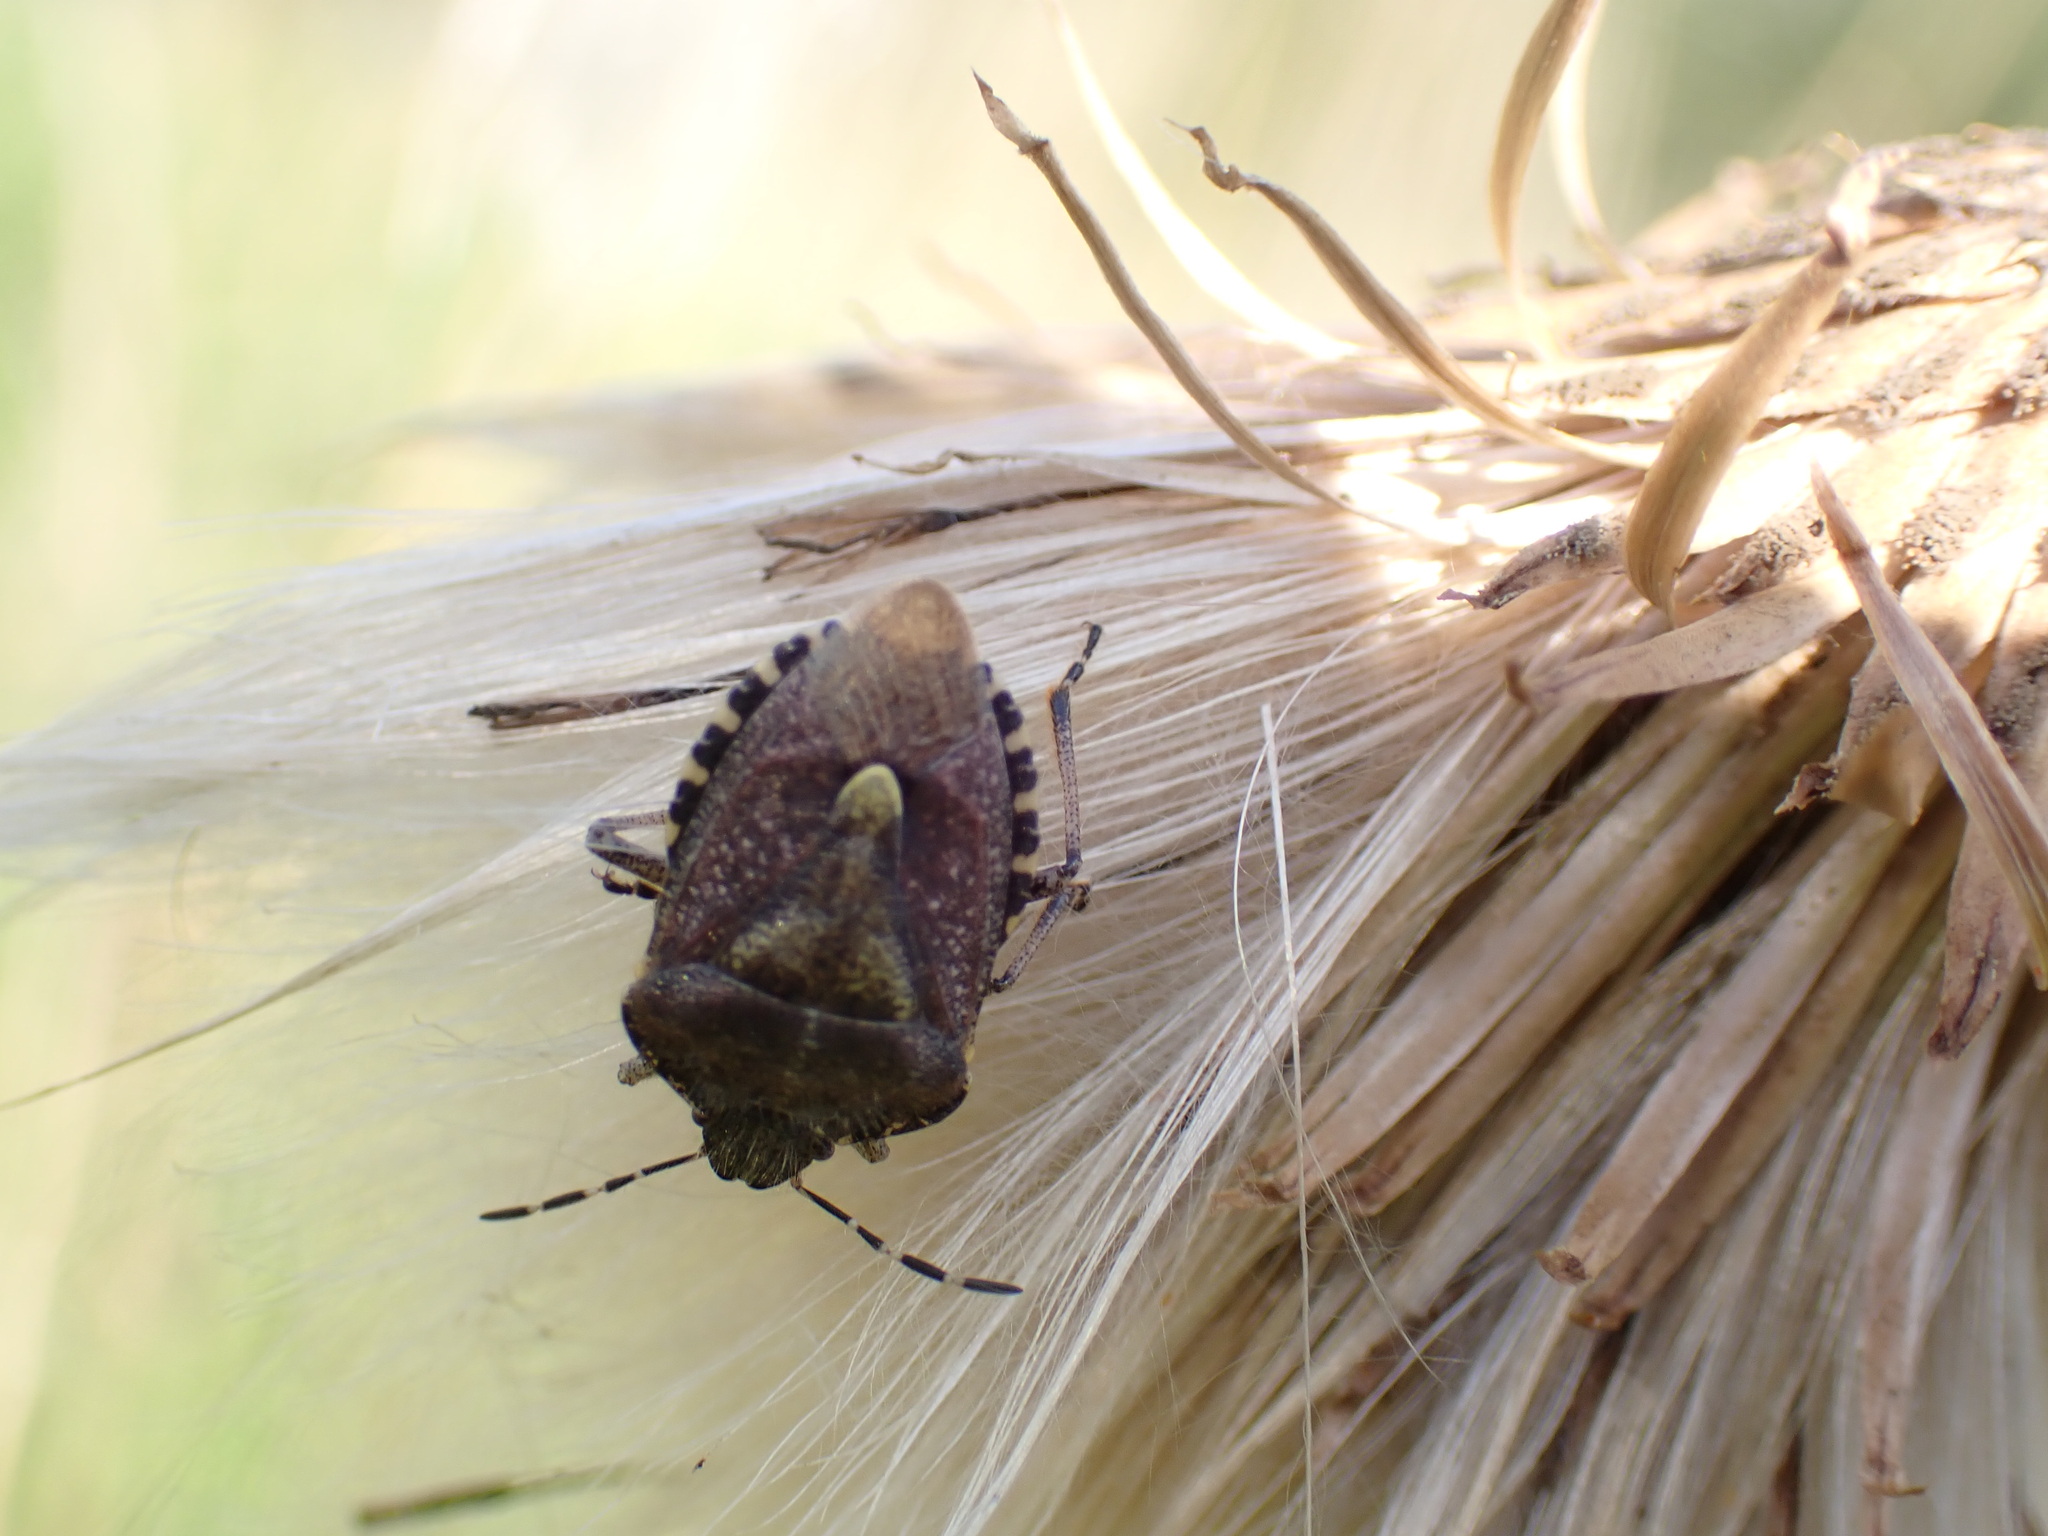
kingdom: Animalia
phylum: Arthropoda
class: Insecta
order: Hemiptera
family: Pentatomidae
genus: Dolycoris
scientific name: Dolycoris baccarum
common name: Sloe bug
